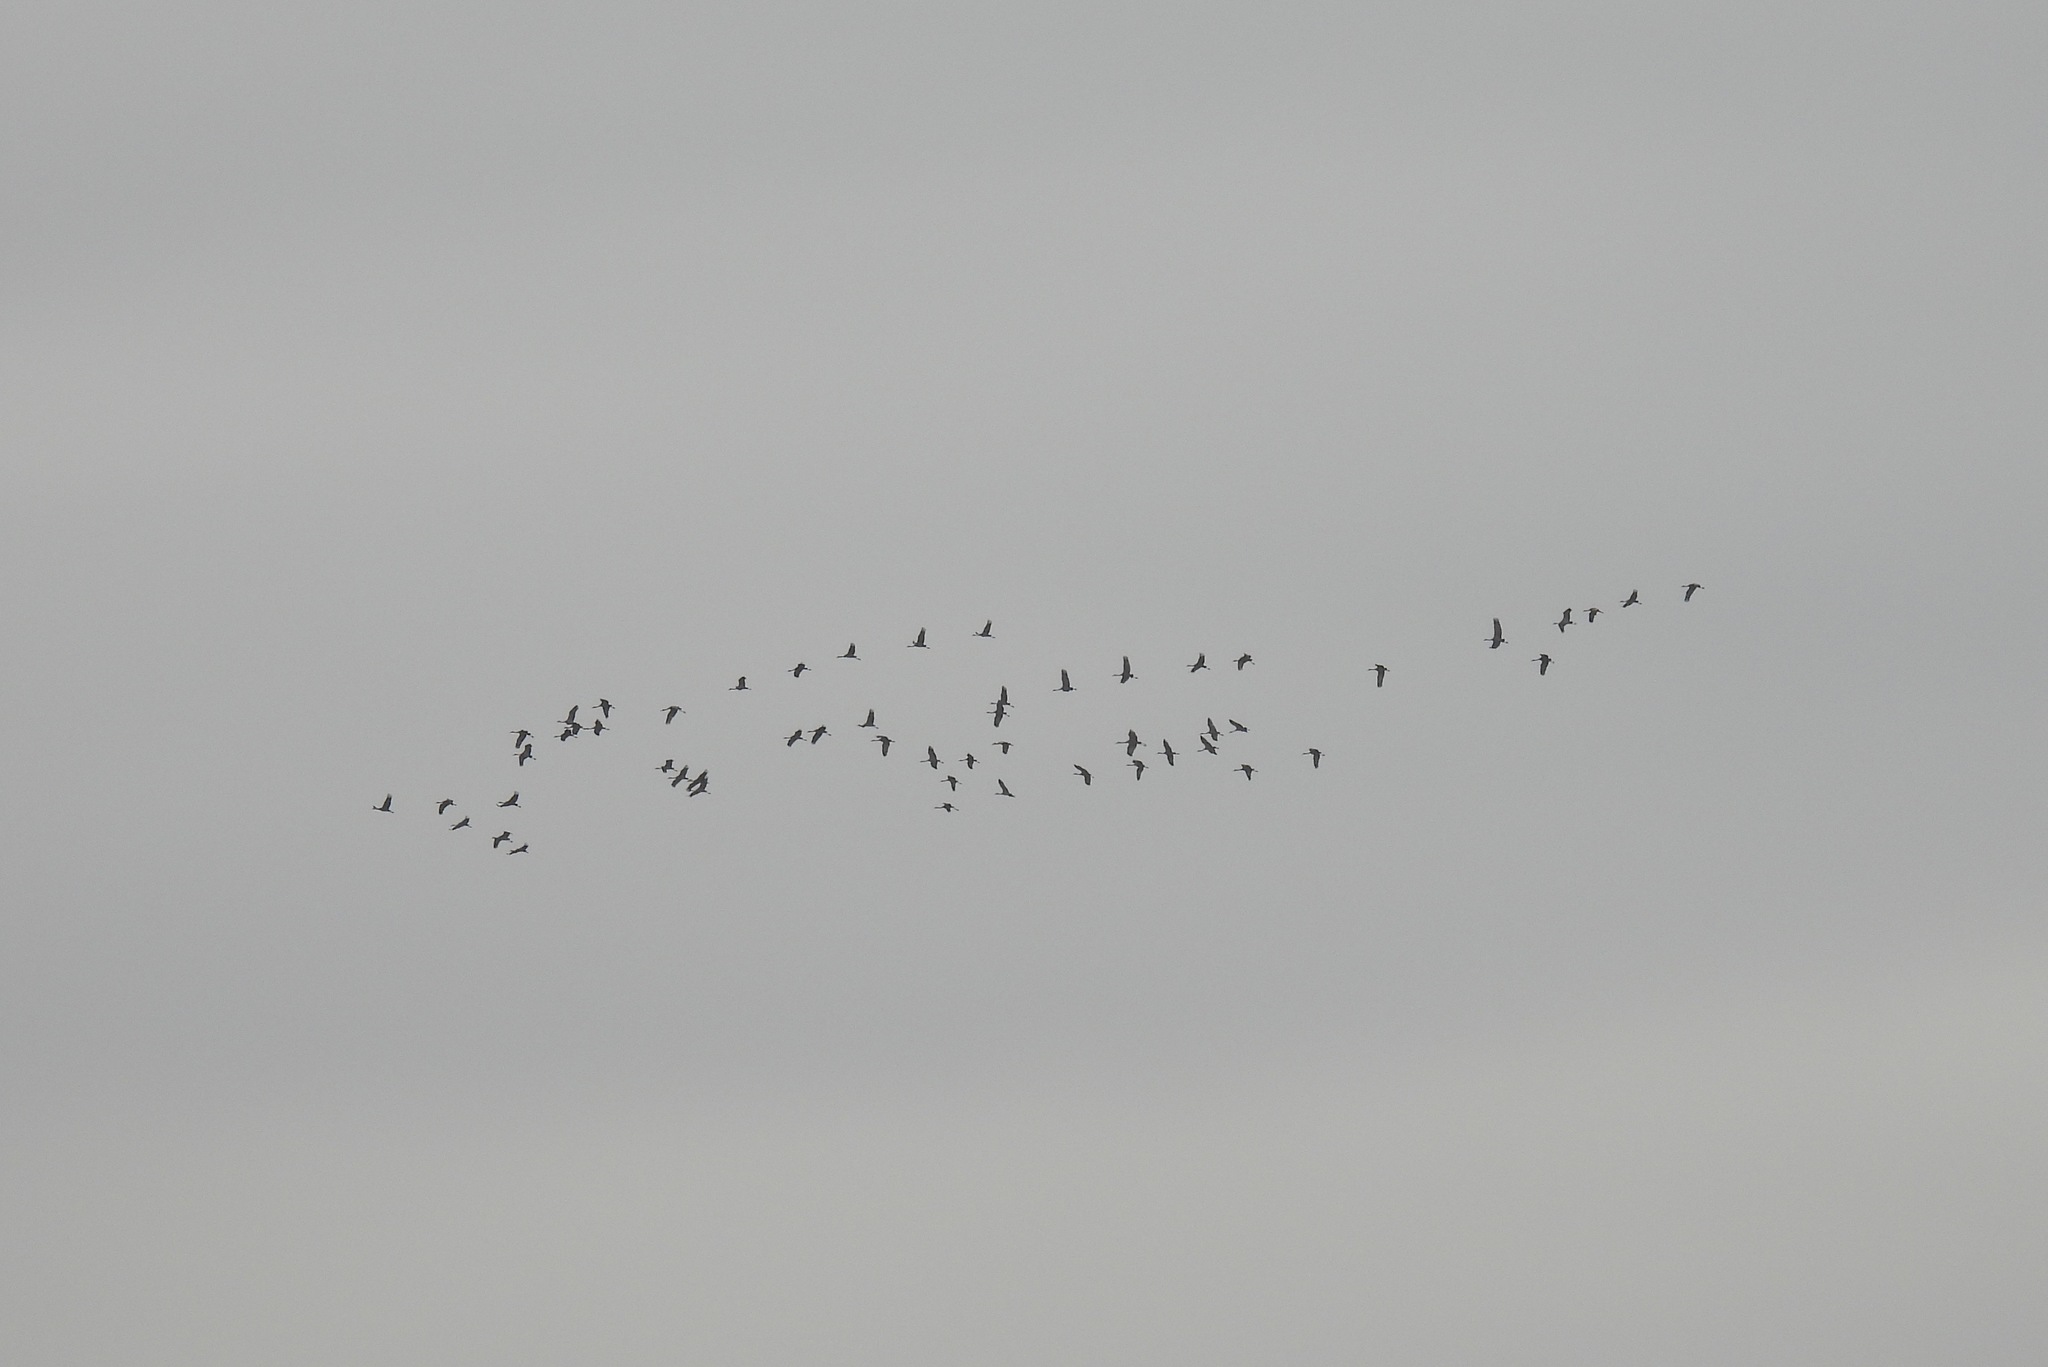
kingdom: Animalia
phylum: Chordata
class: Aves
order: Gruiformes
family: Gruidae
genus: Grus
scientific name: Grus canadensis
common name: Sandhill crane
